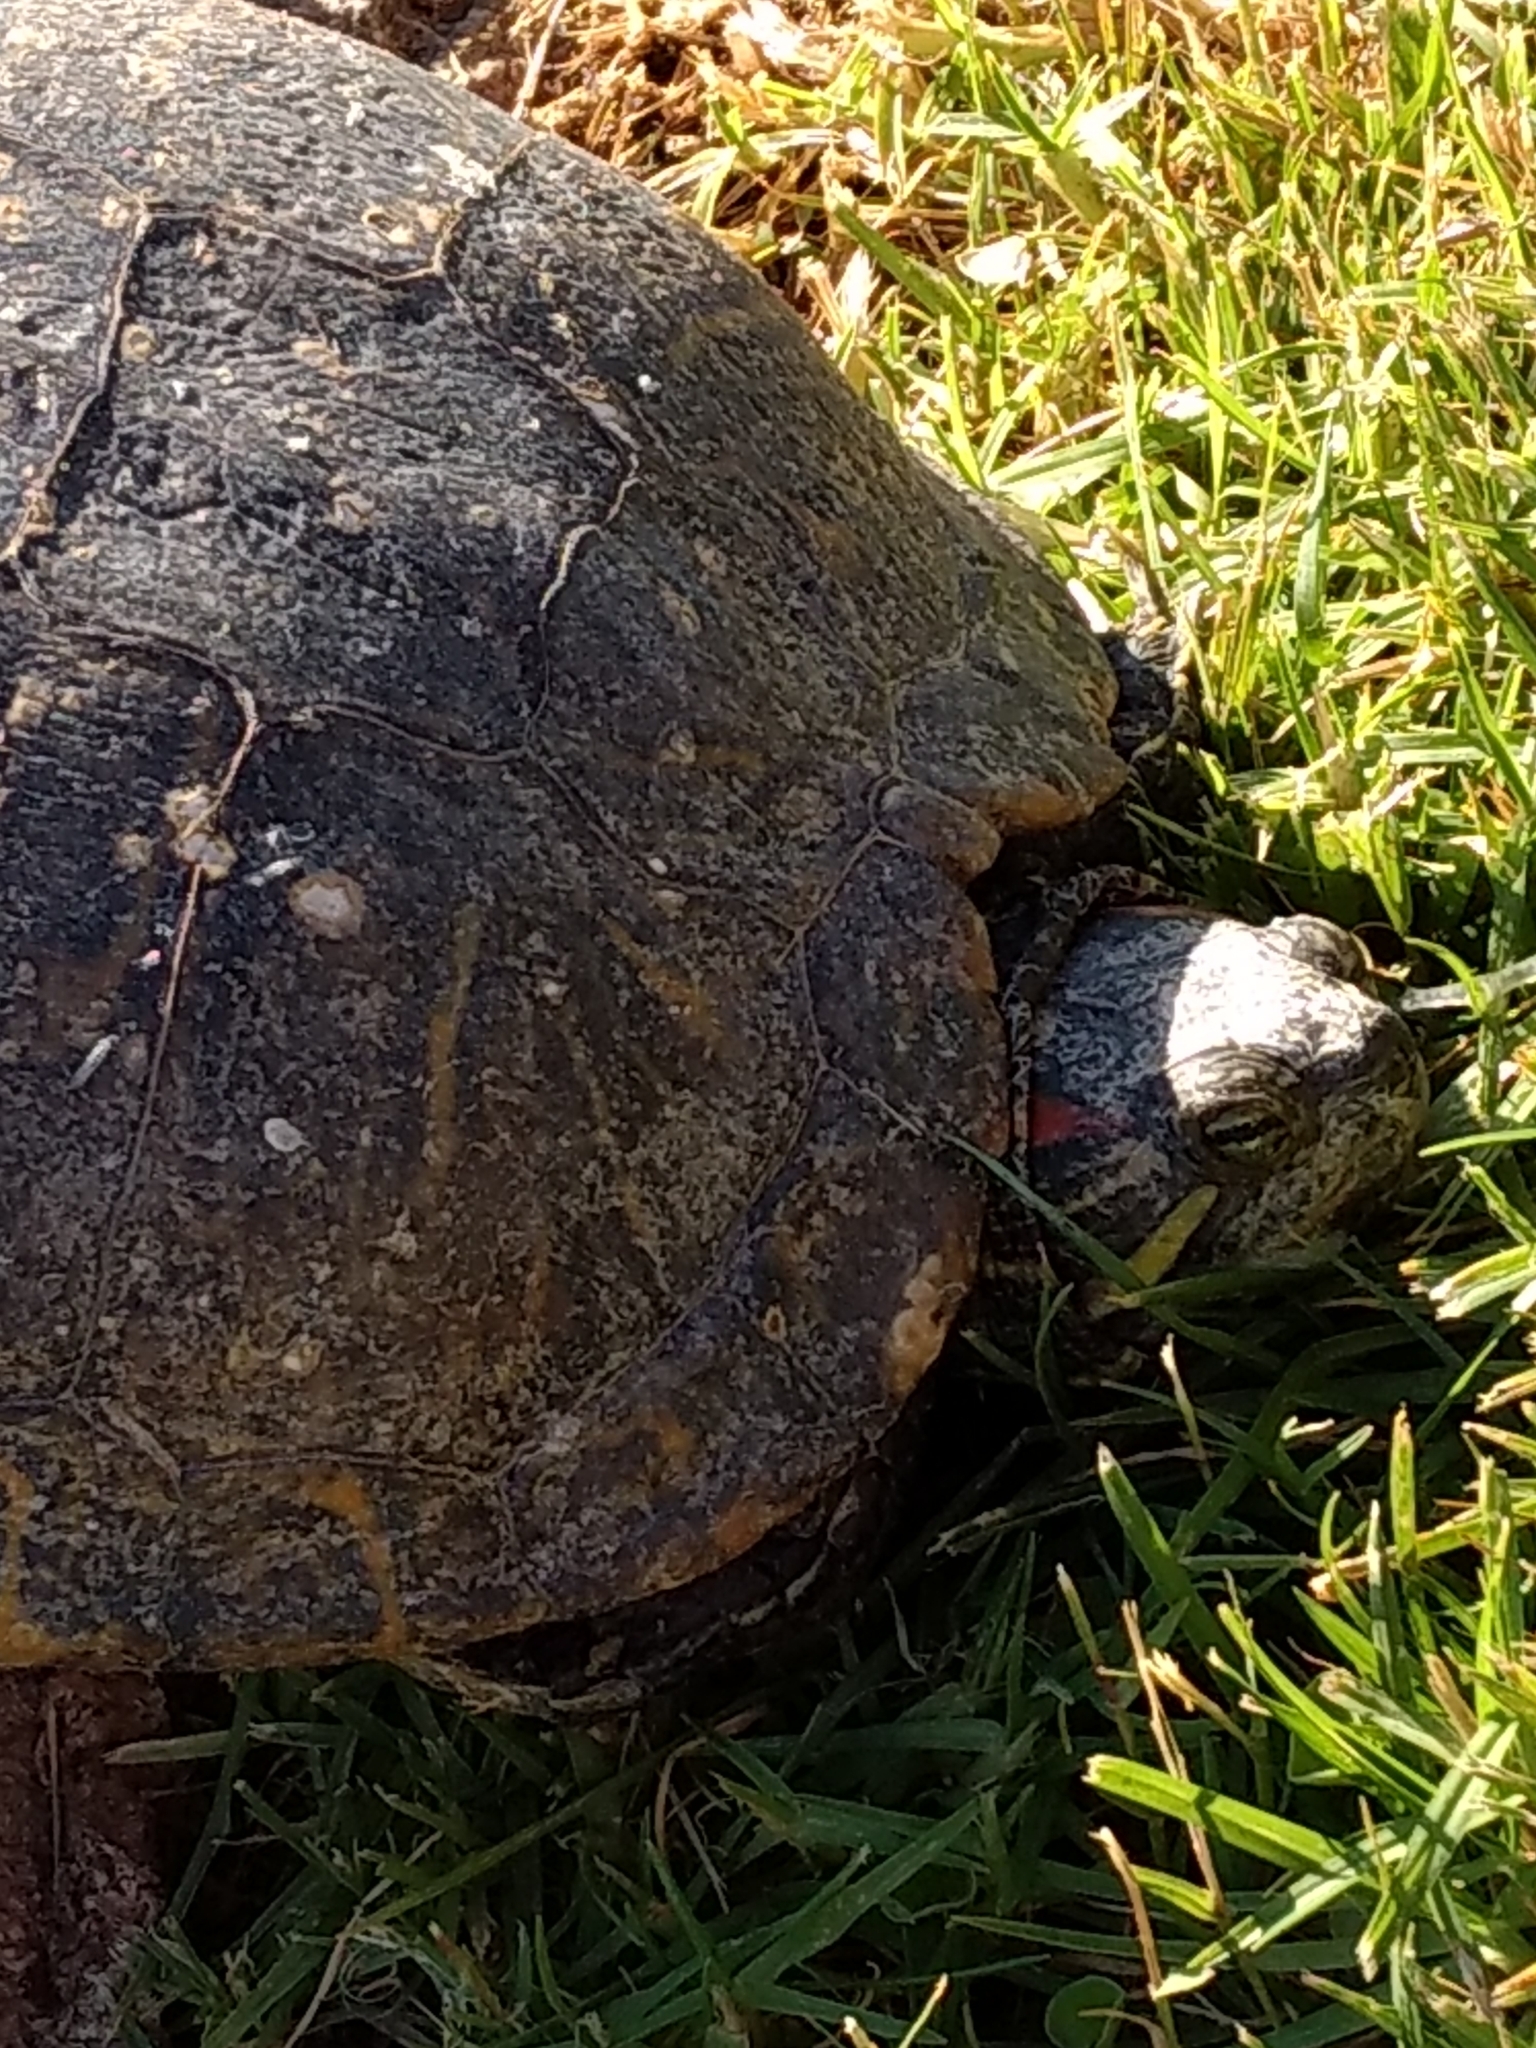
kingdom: Animalia
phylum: Chordata
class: Testudines
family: Emydidae
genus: Trachemys
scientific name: Trachemys scripta
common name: Slider
